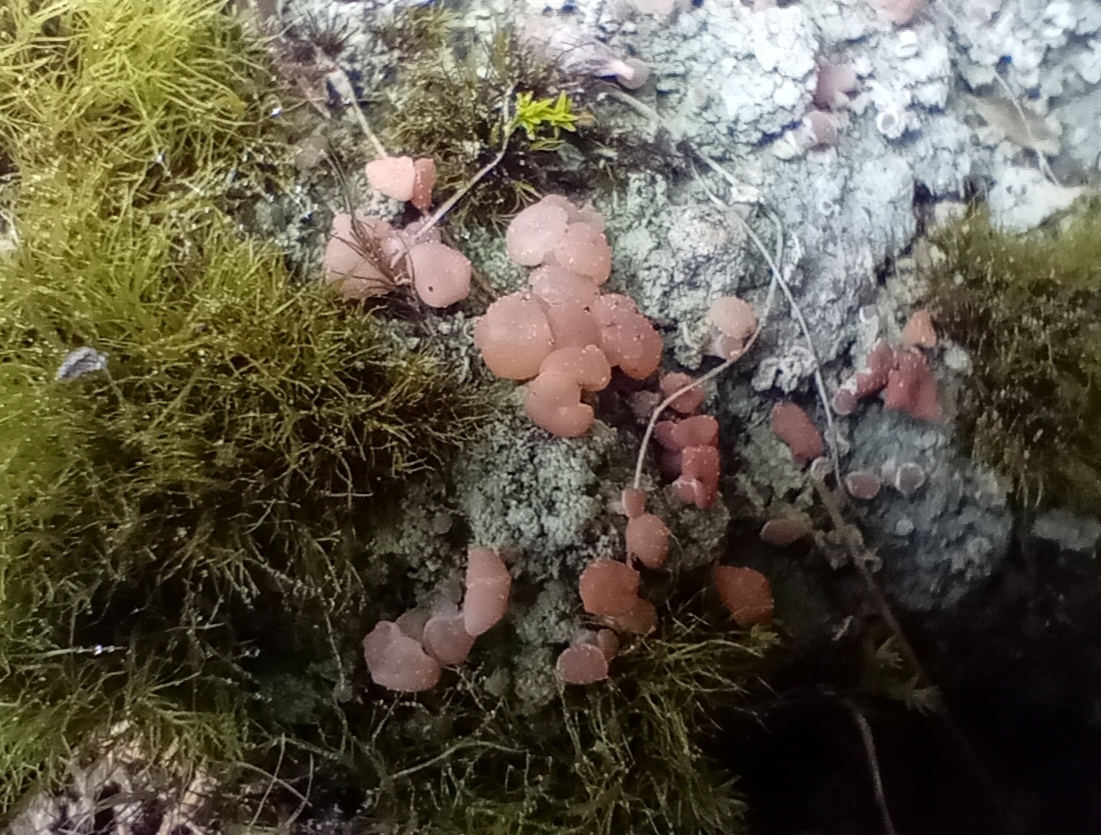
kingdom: Fungi
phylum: Ascomycota
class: Lecanoromycetes
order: Baeomycetales
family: Baeomycetaceae
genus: Baeomyces
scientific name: Baeomyces heteromorphus
